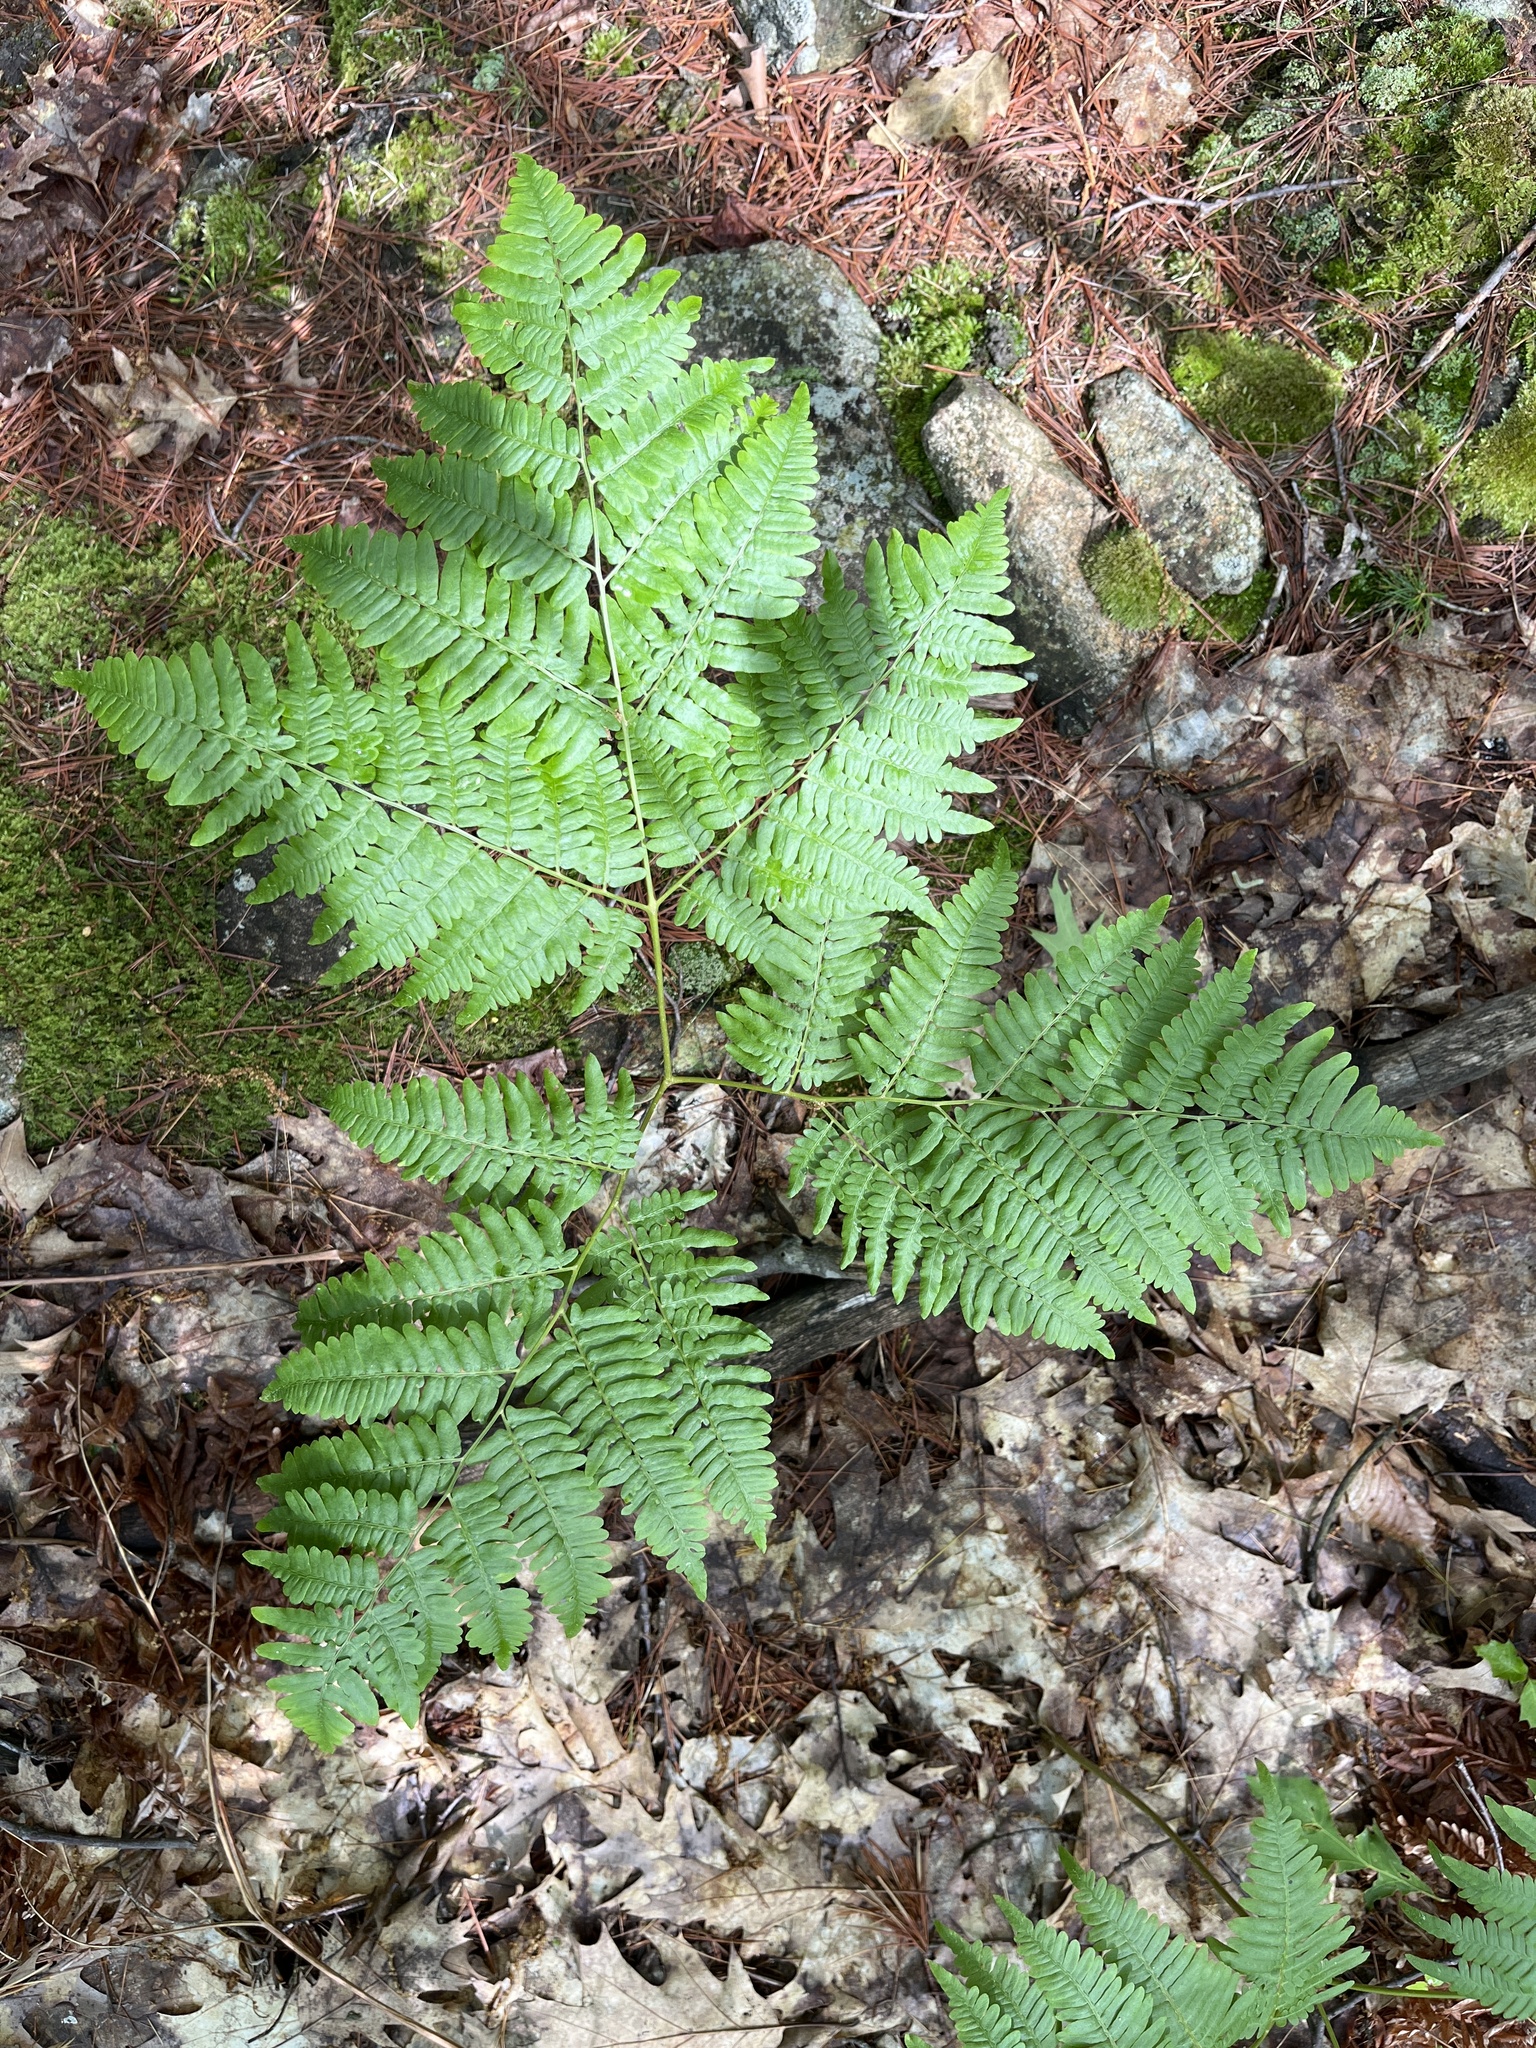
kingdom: Plantae
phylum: Tracheophyta
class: Polypodiopsida
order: Polypodiales
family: Dennstaedtiaceae
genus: Pteridium
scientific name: Pteridium aquilinum
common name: Bracken
